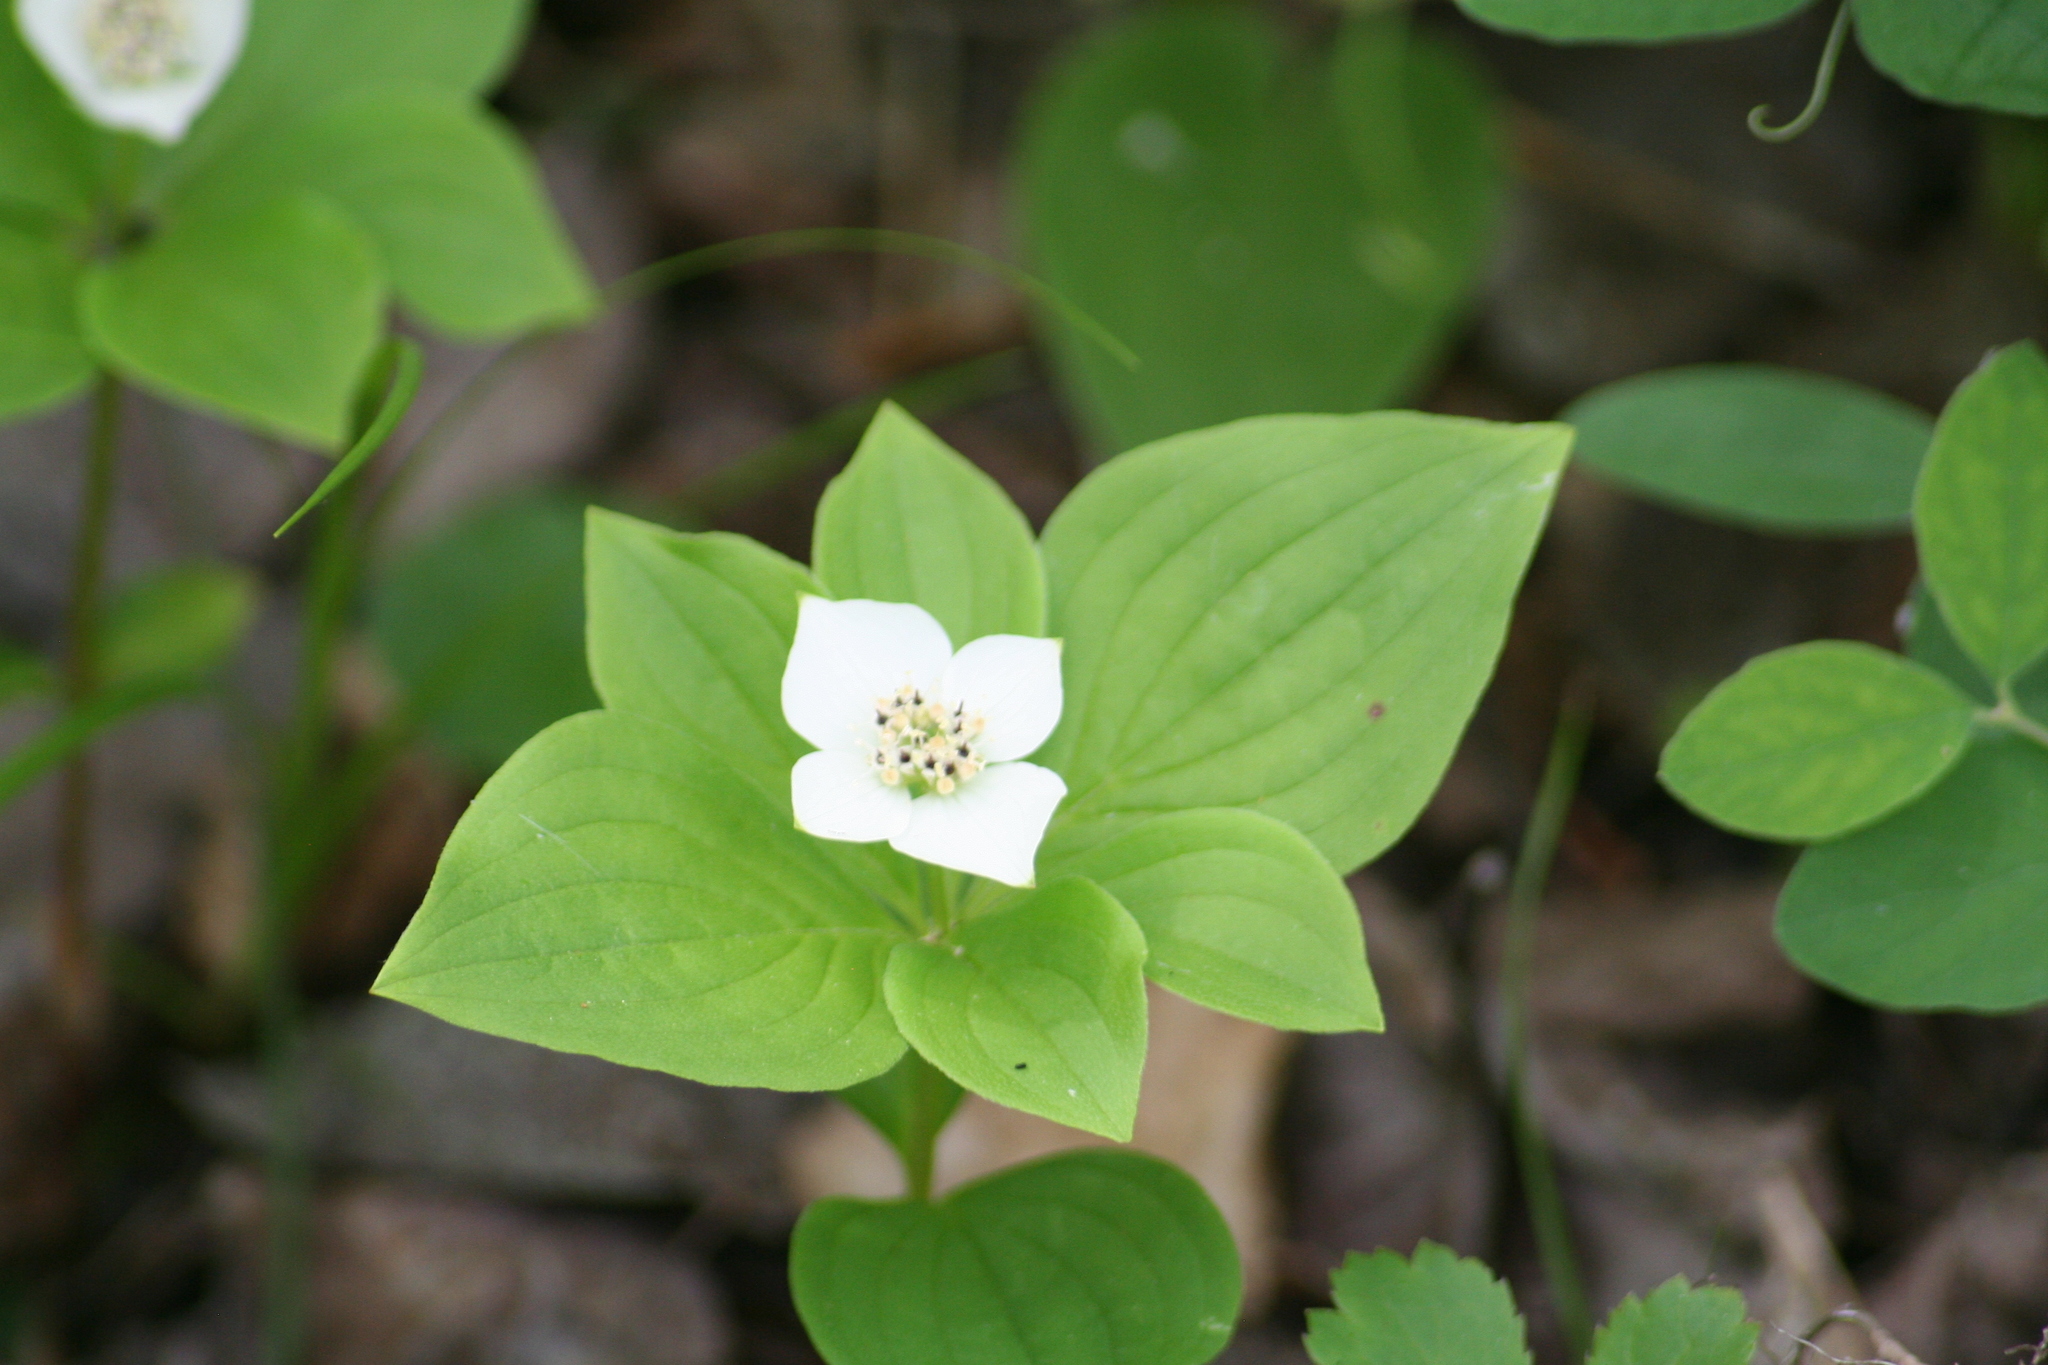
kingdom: Plantae
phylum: Tracheophyta
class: Magnoliopsida
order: Cornales
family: Cornaceae
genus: Cornus
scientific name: Cornus canadensis
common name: Creeping dogwood
